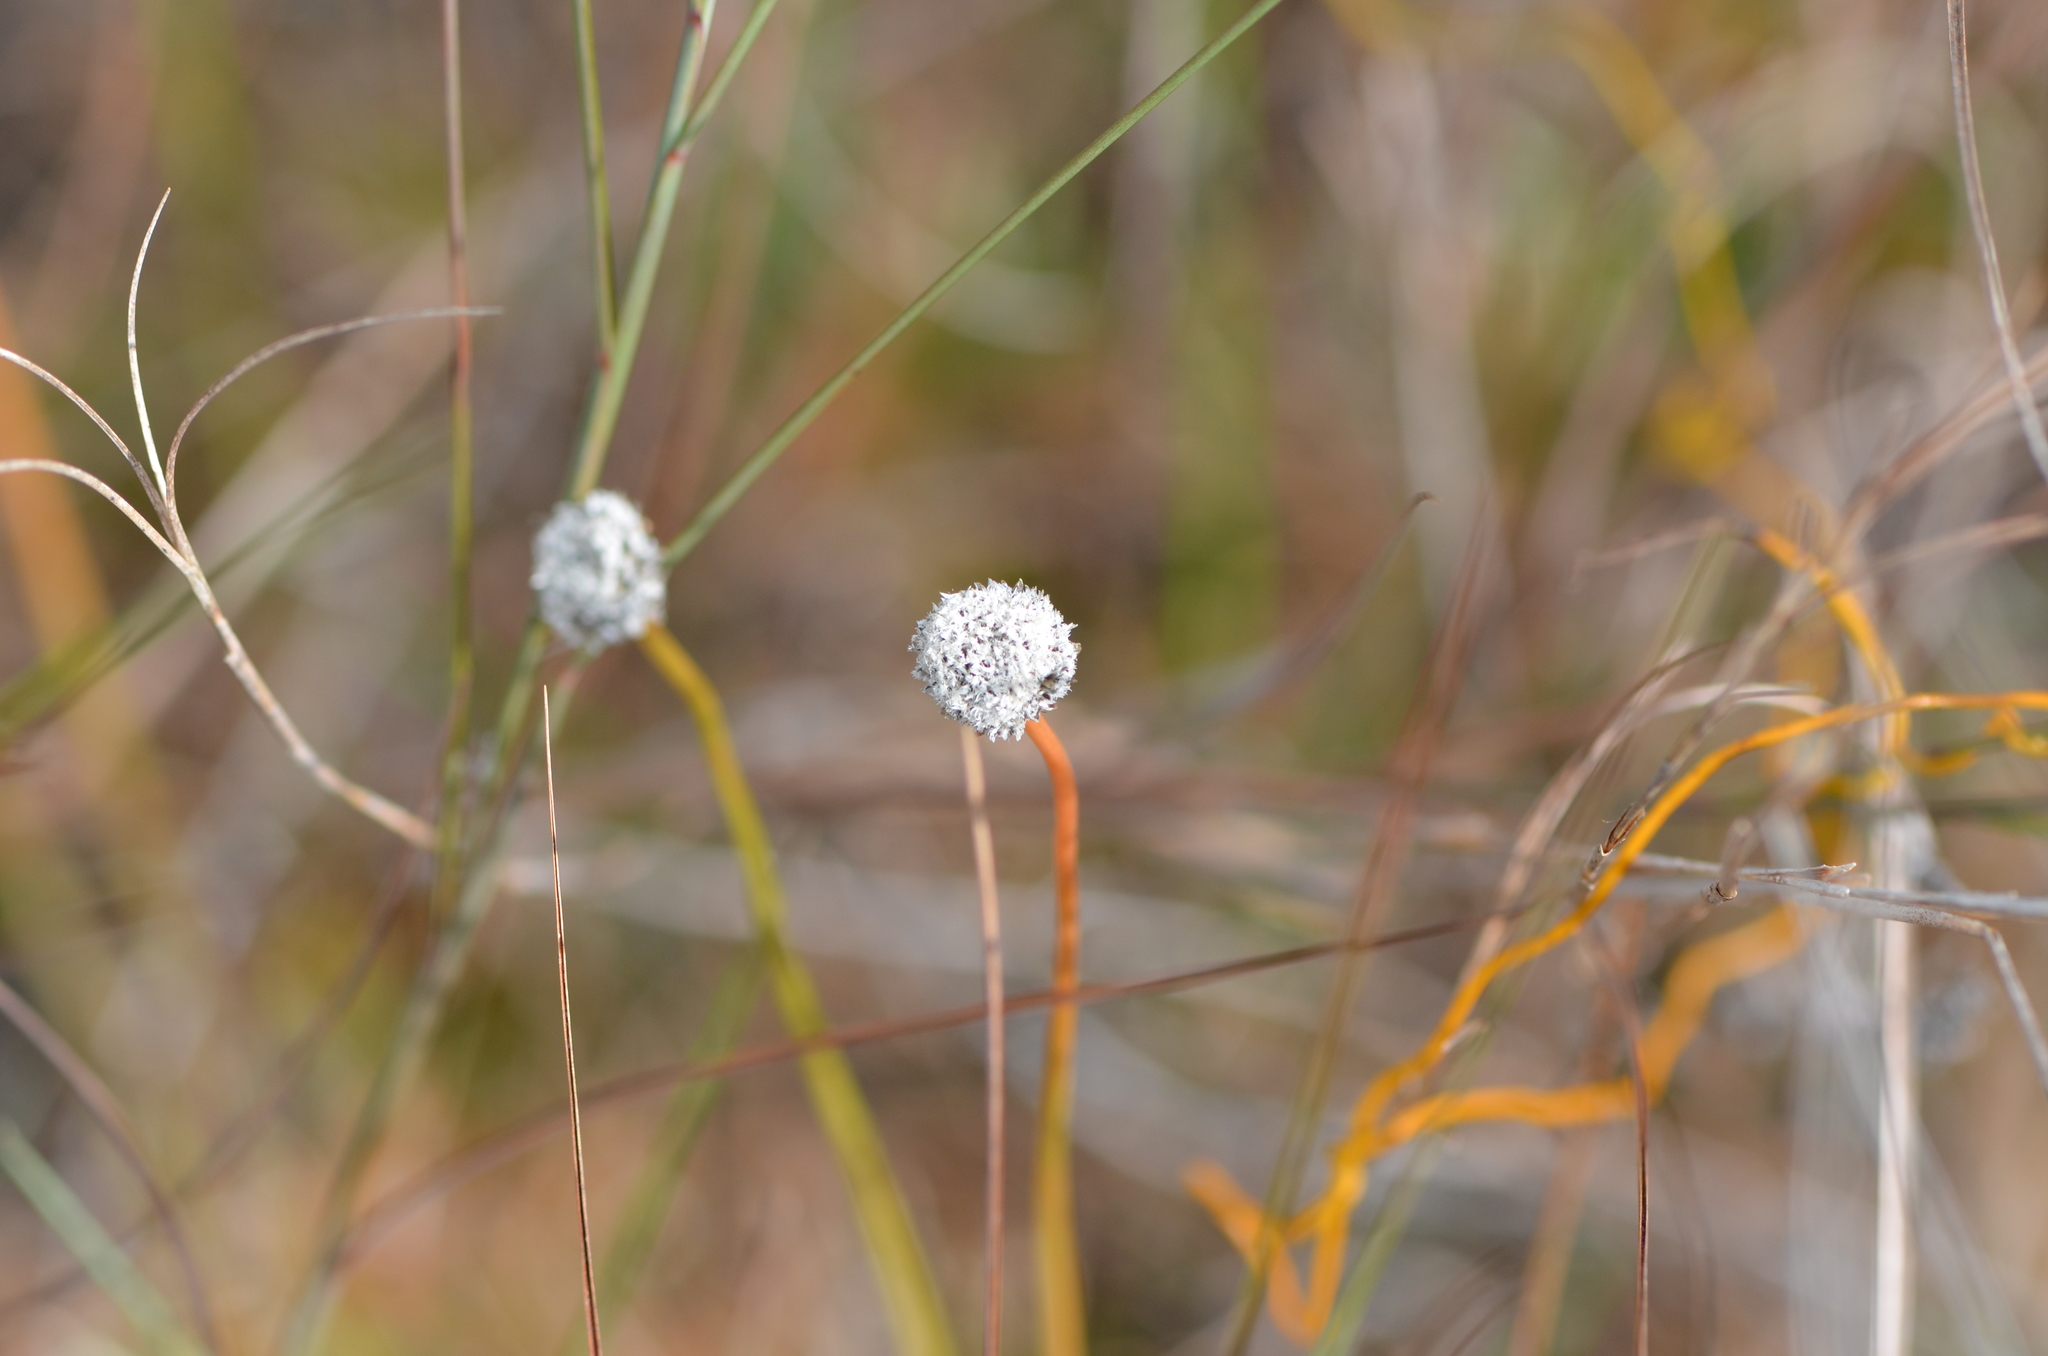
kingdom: Plantae
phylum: Tracheophyta
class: Liliopsida
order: Poales
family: Eriocaulaceae
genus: Eriocaulon
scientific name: Eriocaulon compressum
